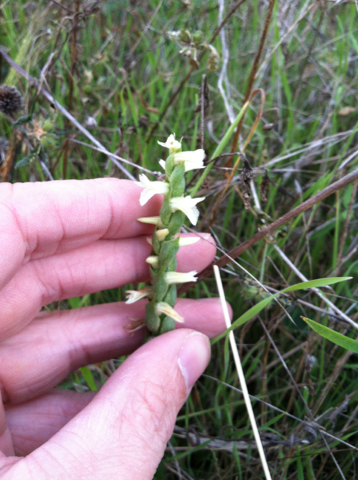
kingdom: Plantae
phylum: Tracheophyta
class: Liliopsida
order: Asparagales
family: Orchidaceae
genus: Spiranthes
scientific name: Spiranthes cernua
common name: Dropping ladies'-tresses
